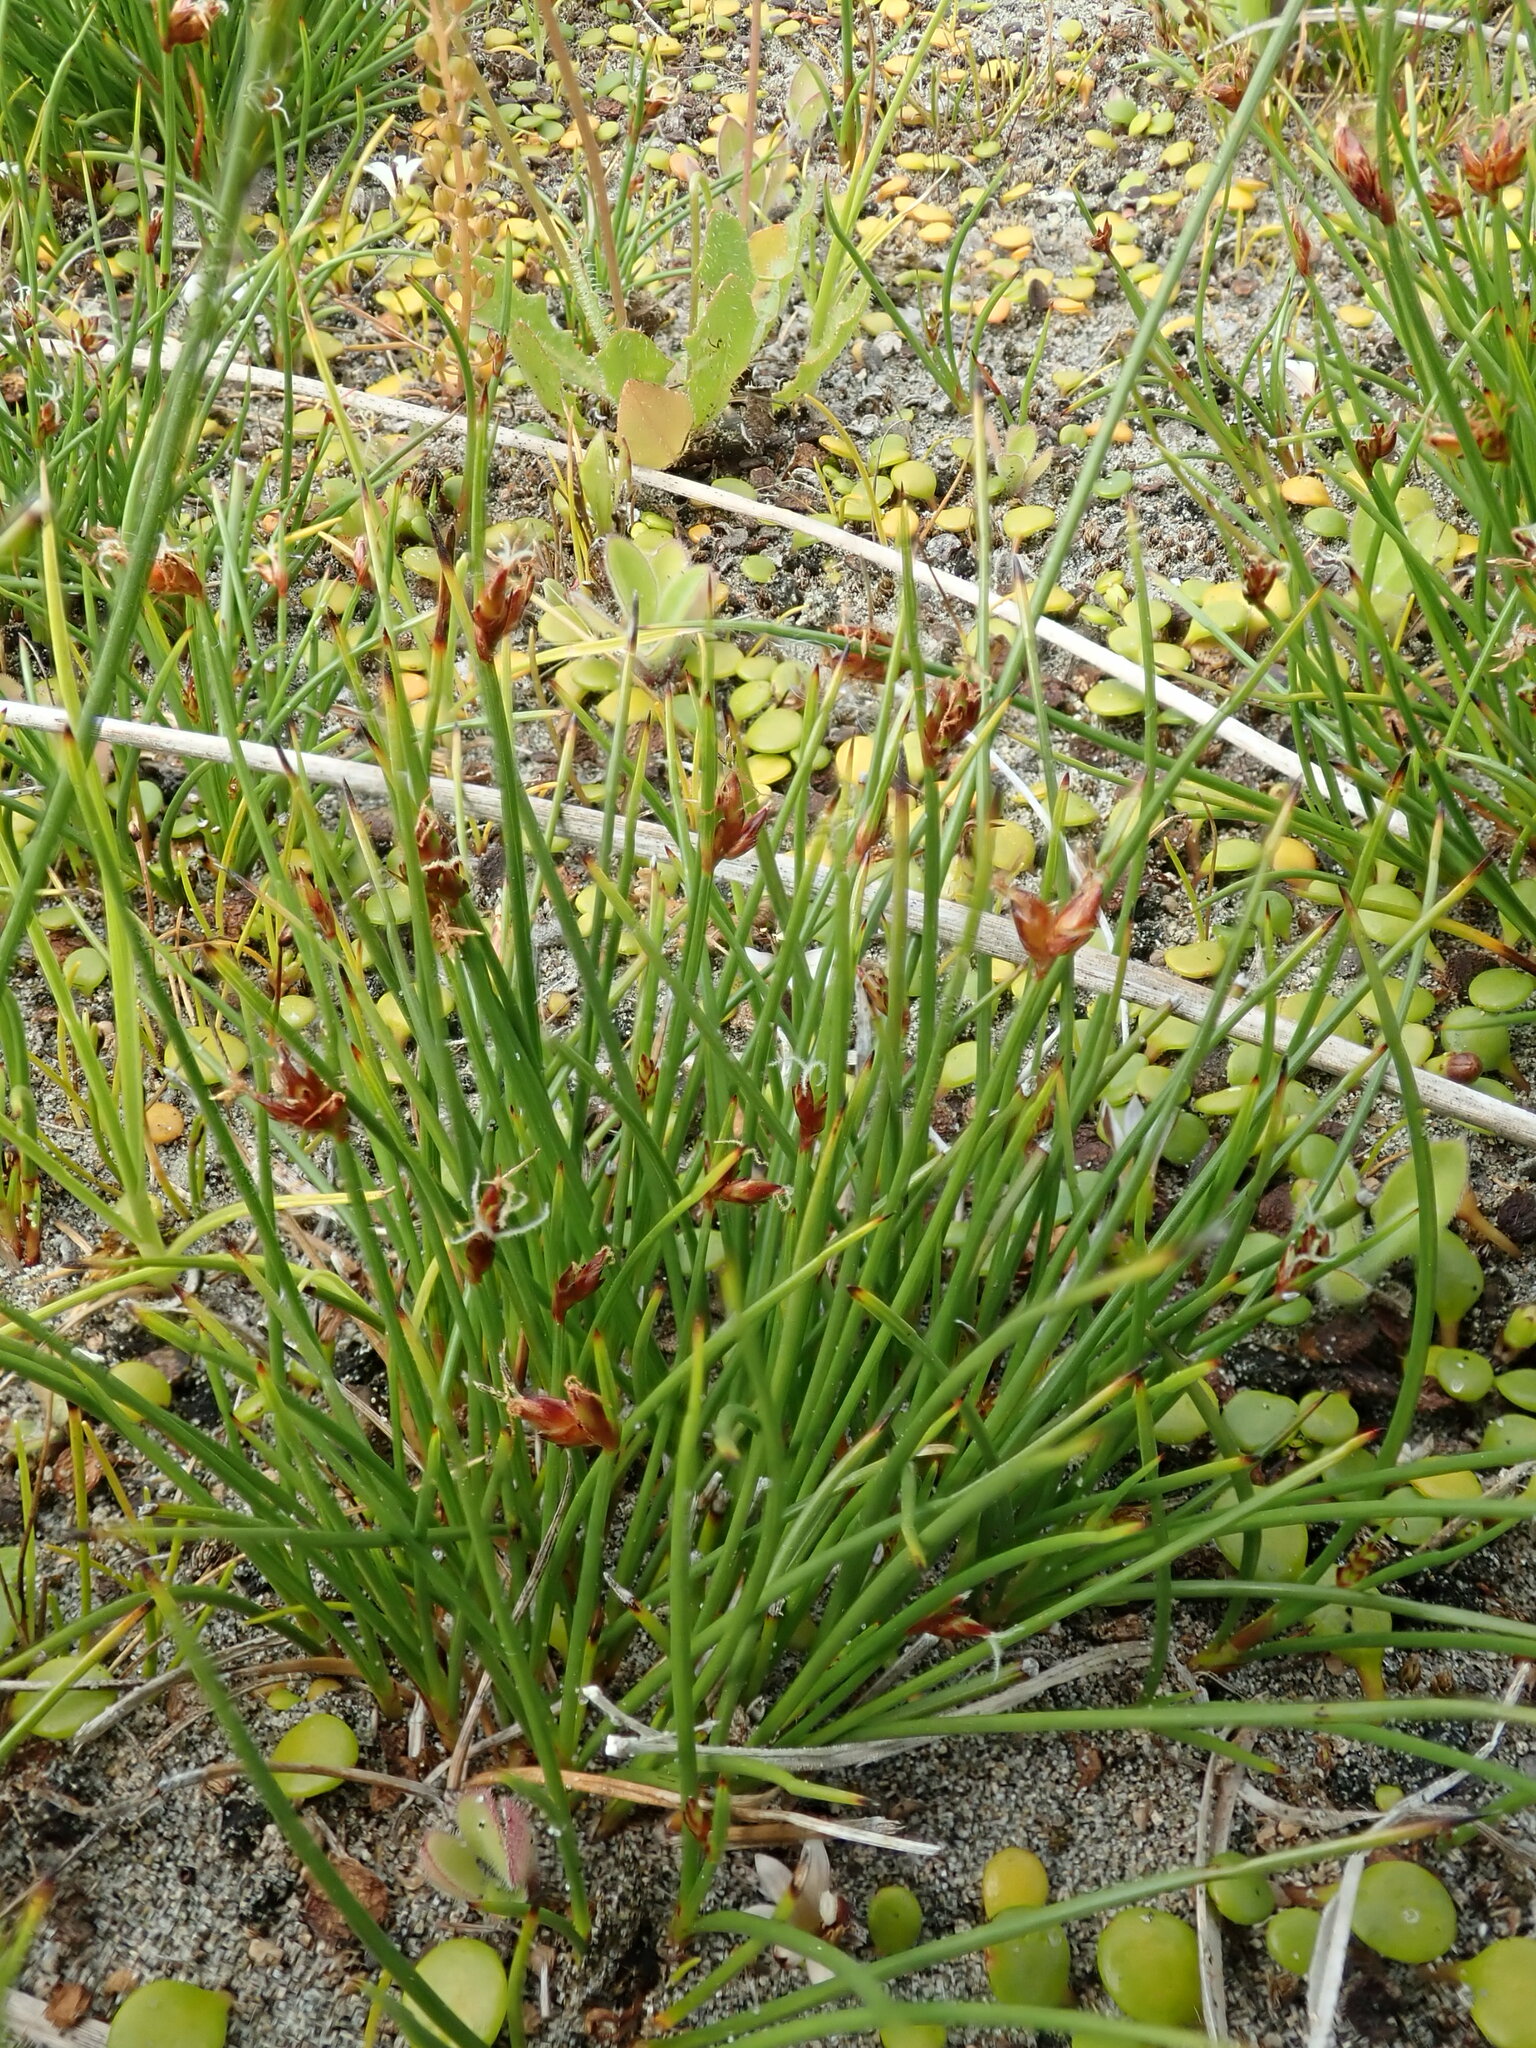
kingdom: Plantae
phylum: Tracheophyta
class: Liliopsida
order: Poales
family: Cyperaceae
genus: Schoenus
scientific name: Schoenus nitens
